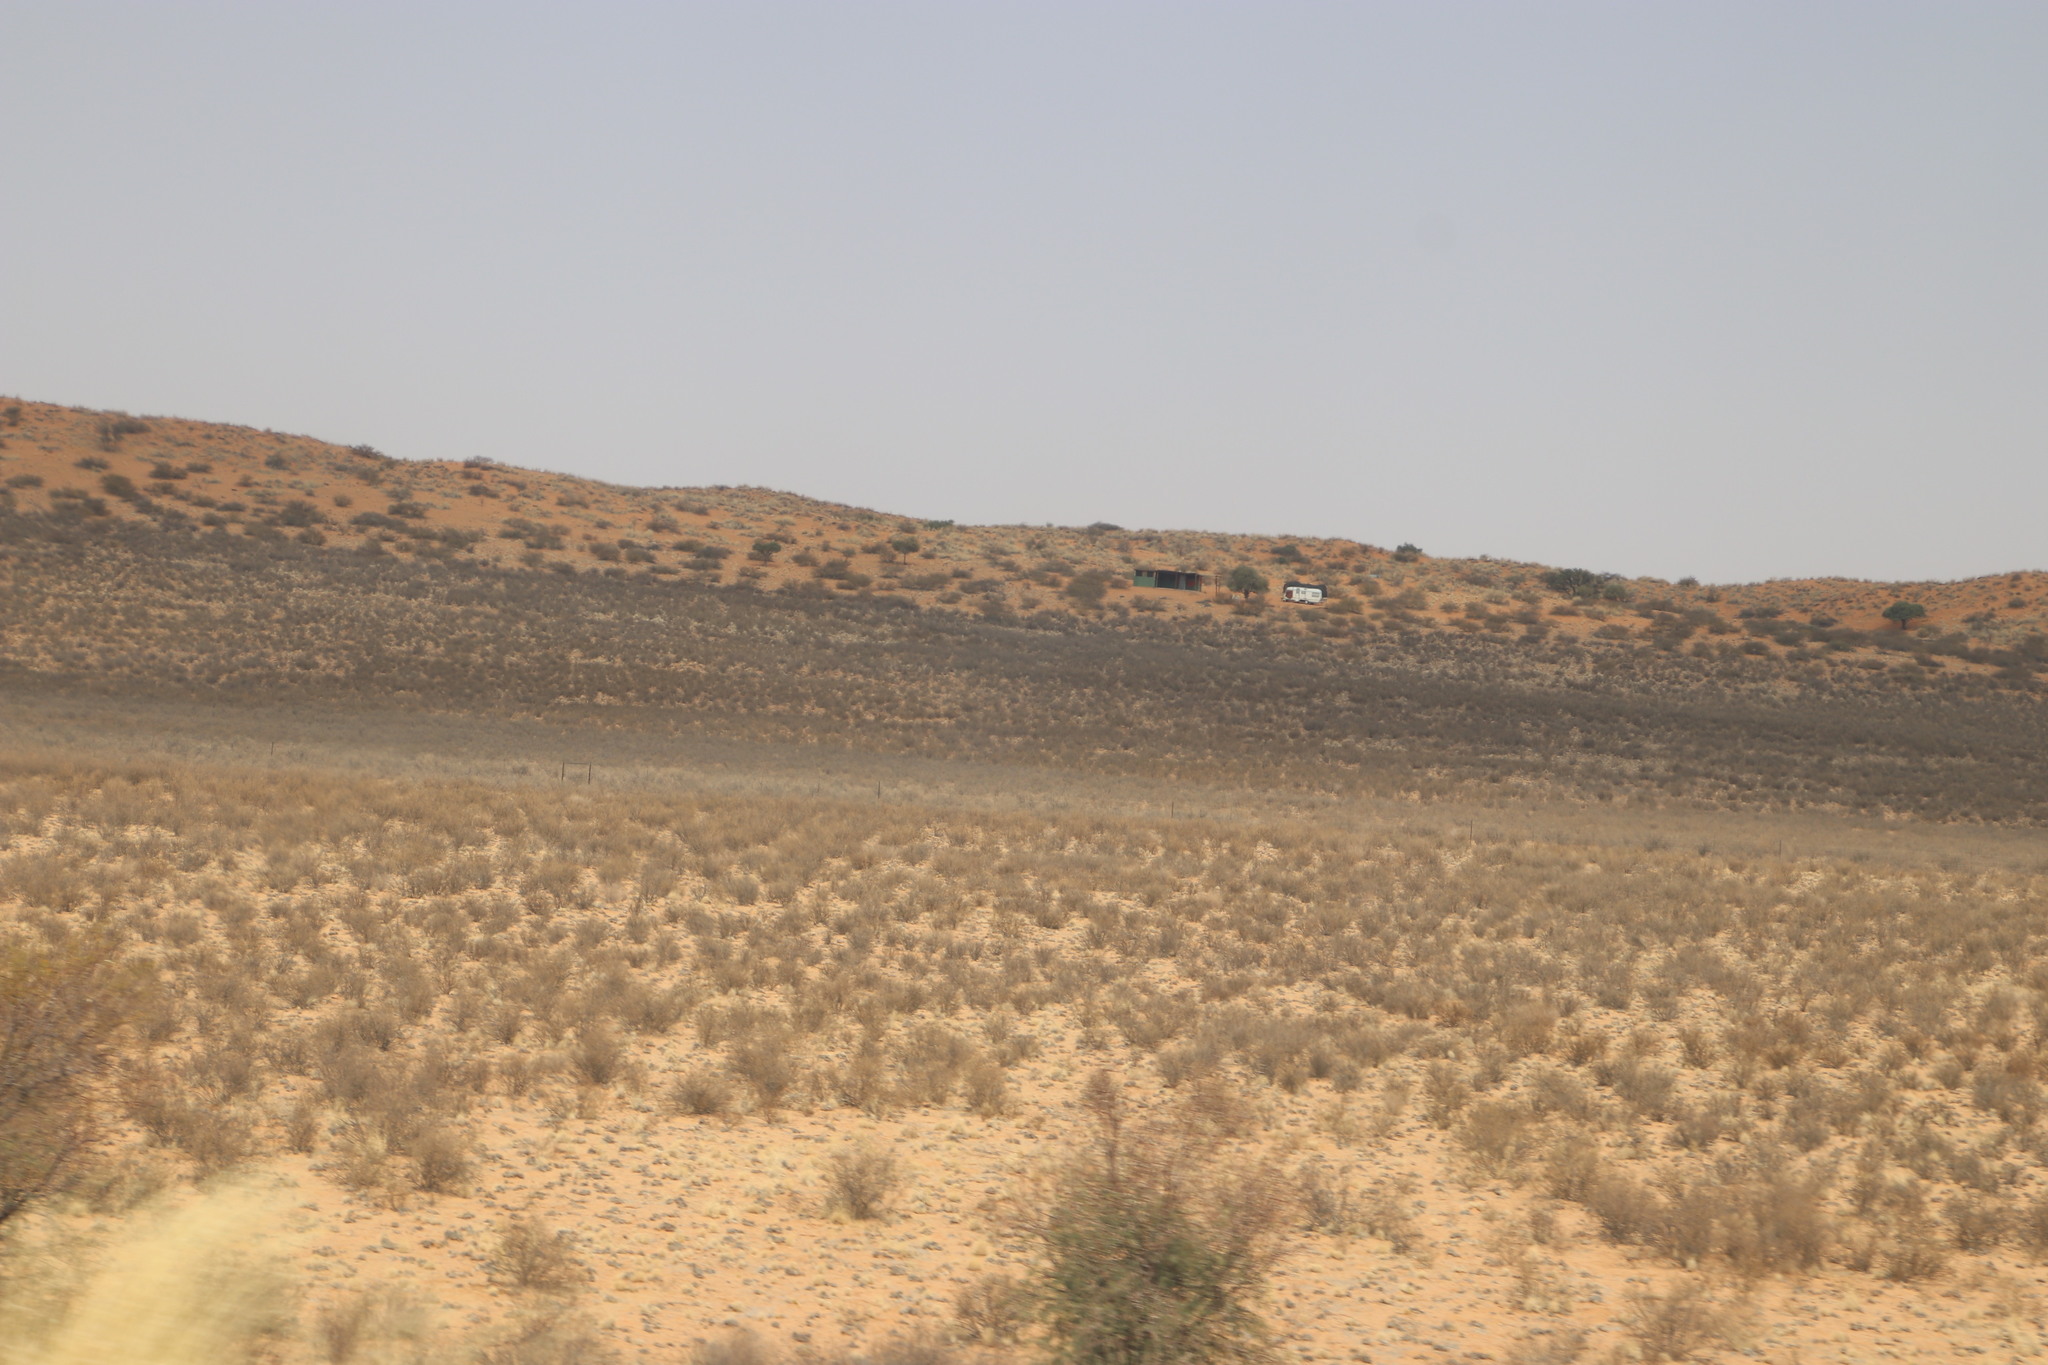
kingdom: Plantae
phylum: Tracheophyta
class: Magnoliopsida
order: Lamiales
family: Bignoniaceae
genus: Rhigozum
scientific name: Rhigozum trichotomum
